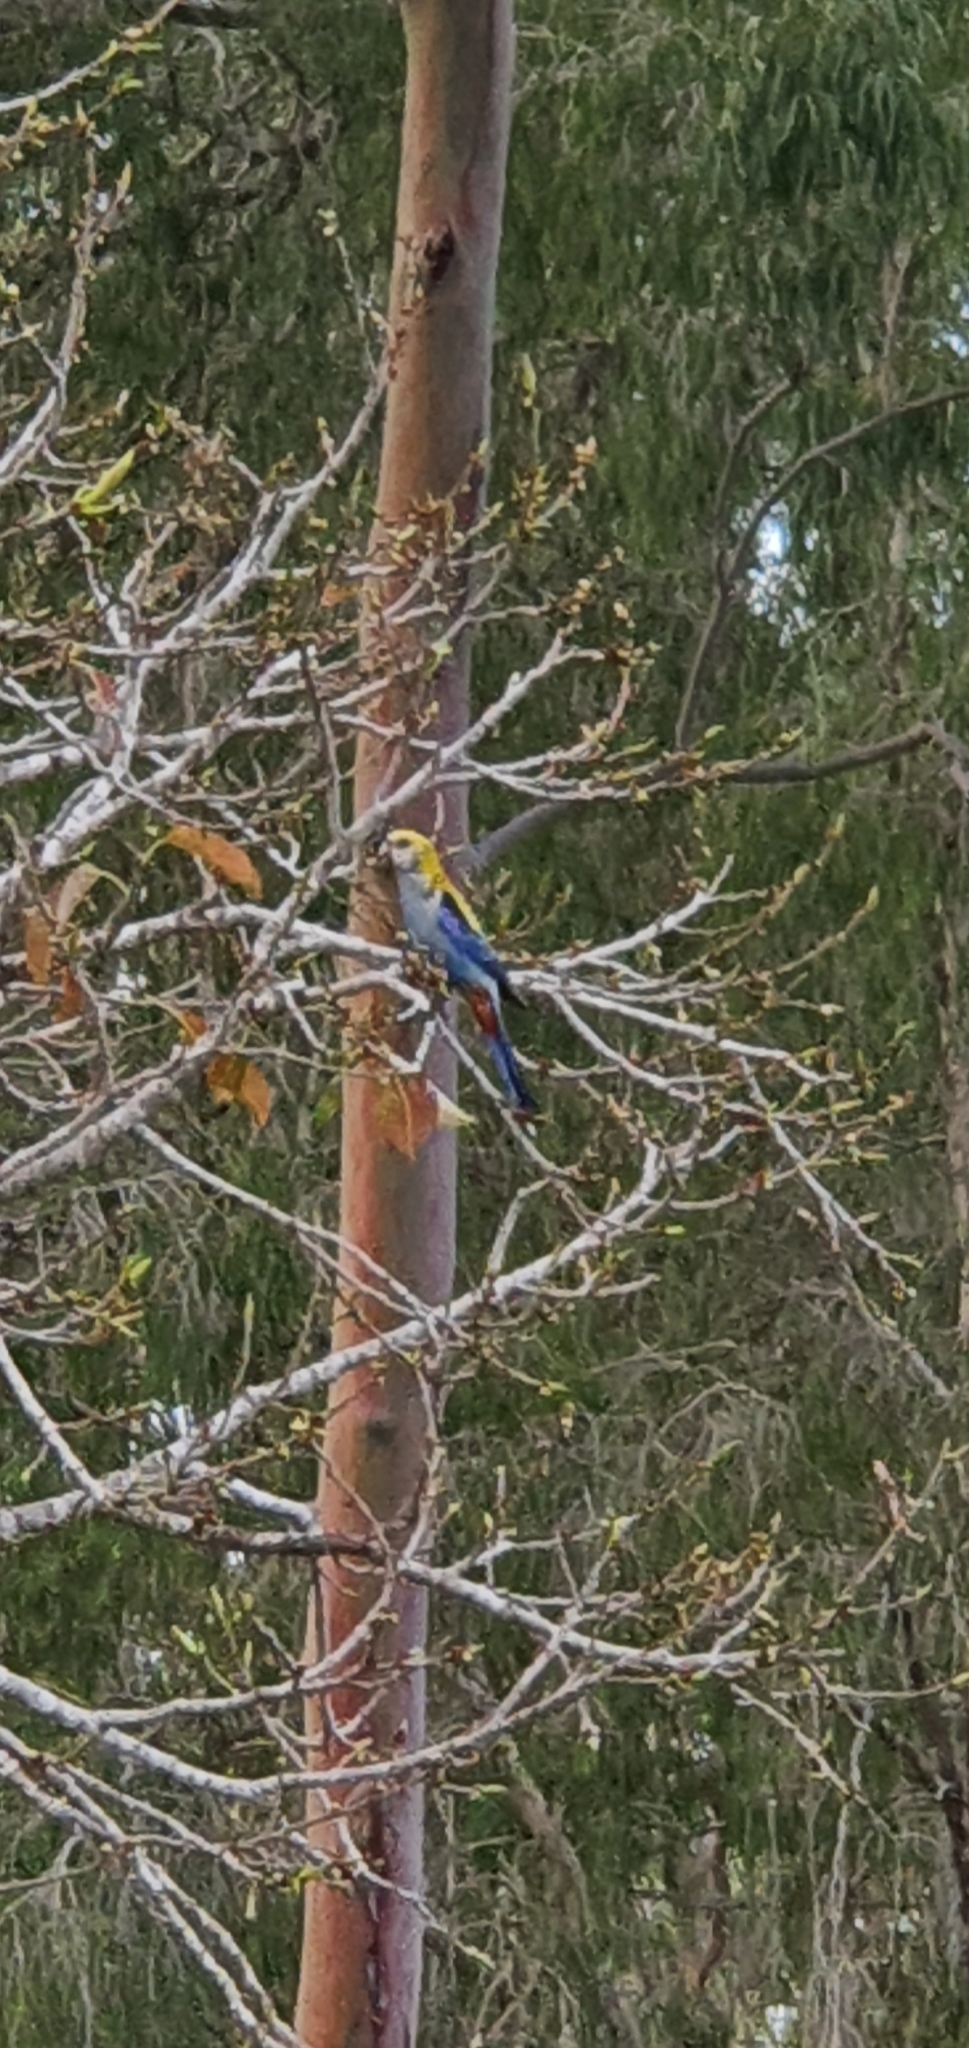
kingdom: Animalia
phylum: Chordata
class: Aves
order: Psittaciformes
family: Psittacidae
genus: Platycercus
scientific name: Platycercus adscitus
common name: Pale-headed rosella
